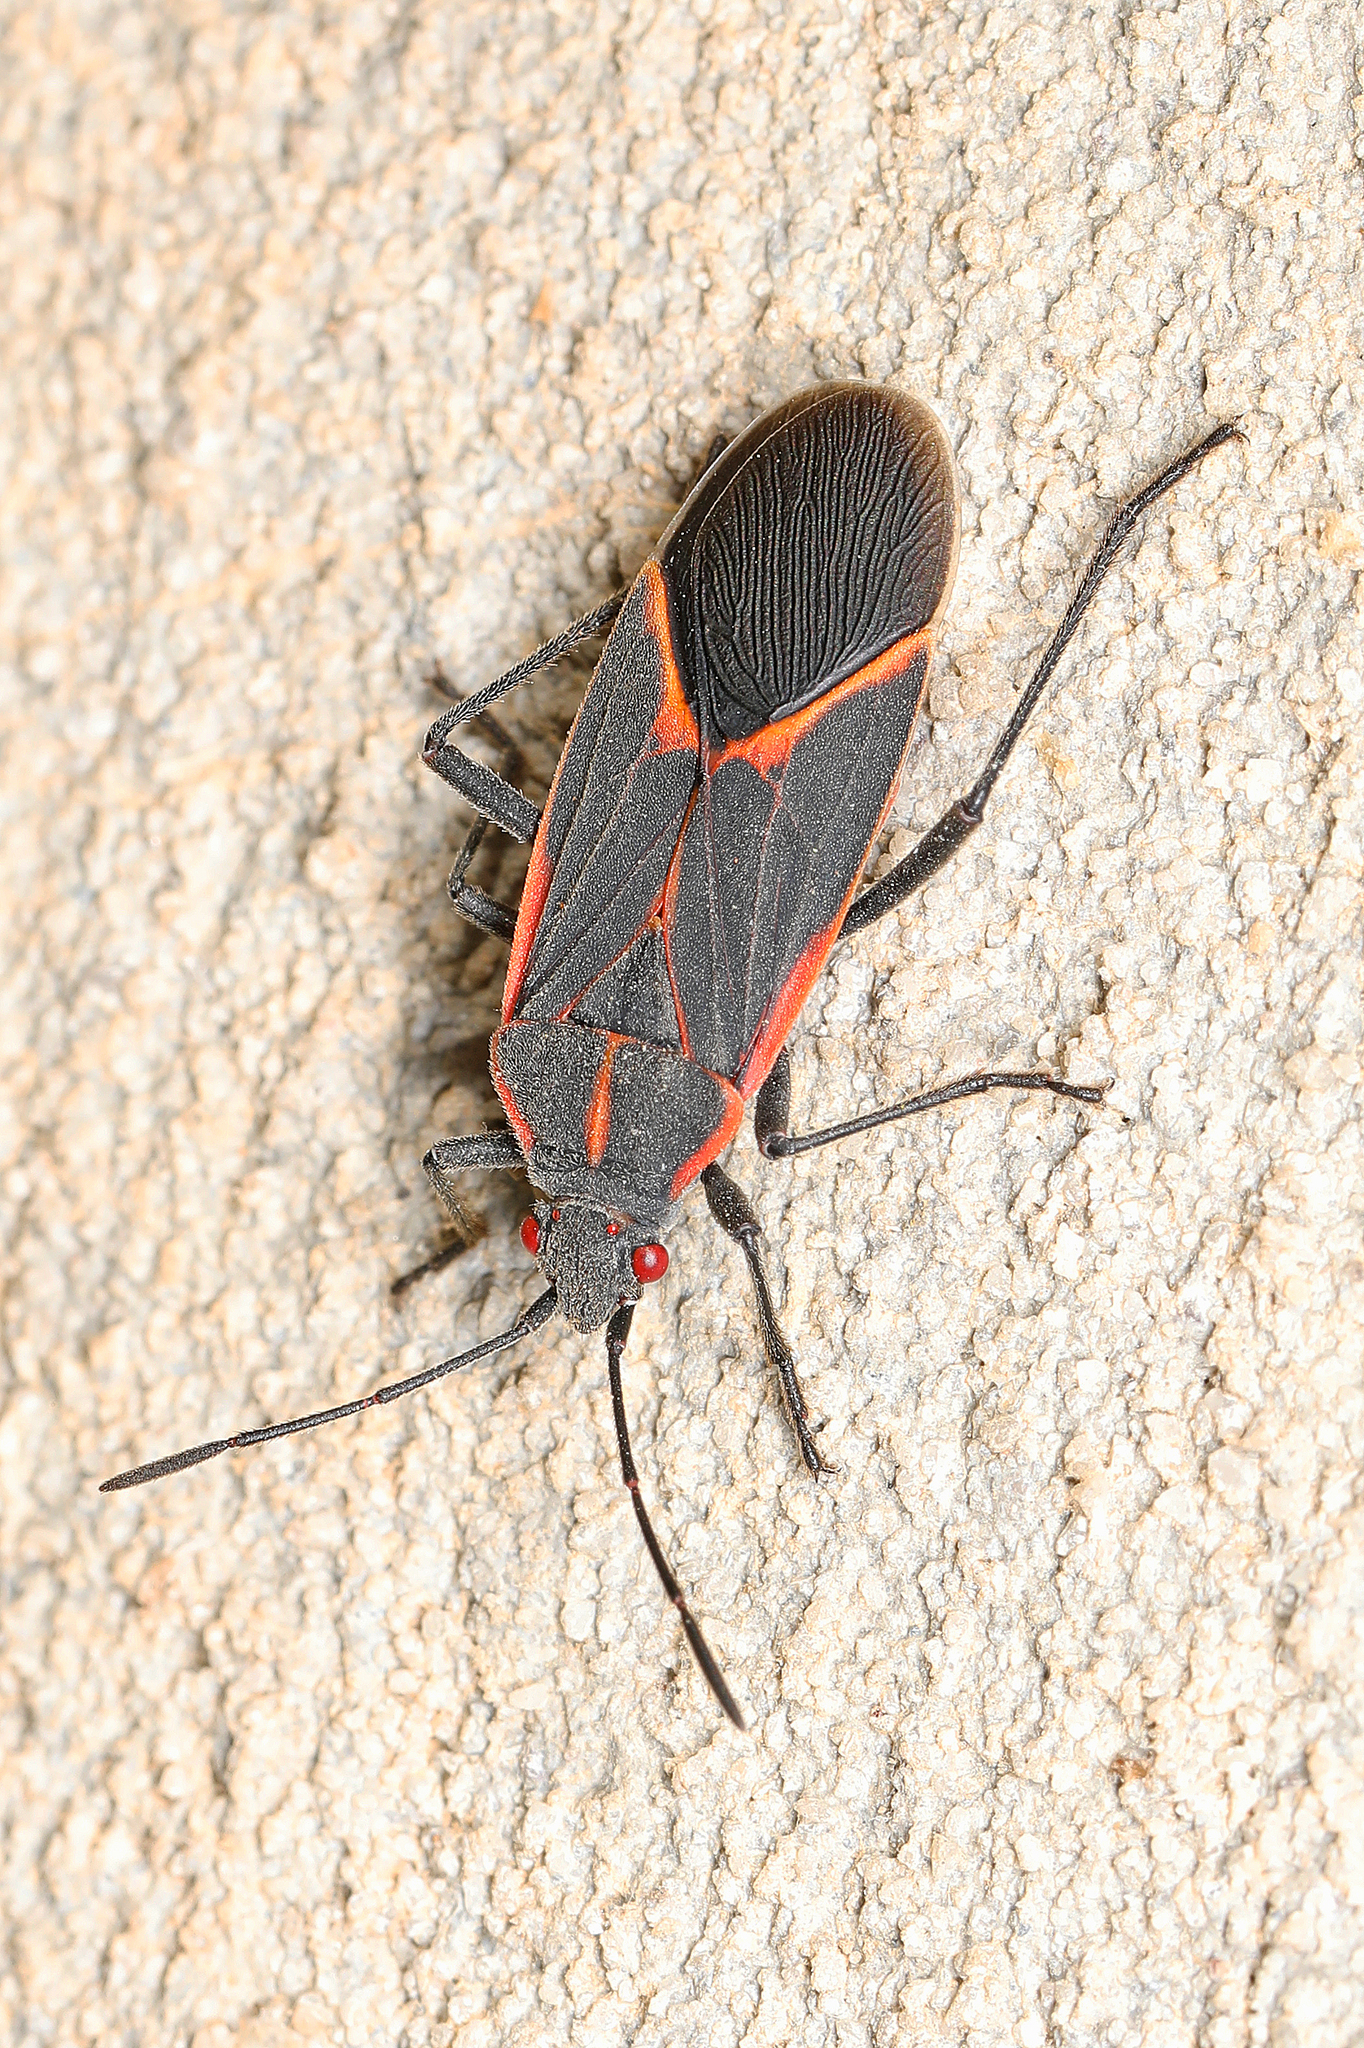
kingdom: Animalia
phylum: Arthropoda
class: Insecta
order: Hemiptera
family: Rhopalidae
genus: Boisea
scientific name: Boisea trivittata
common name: Boxelder bug
